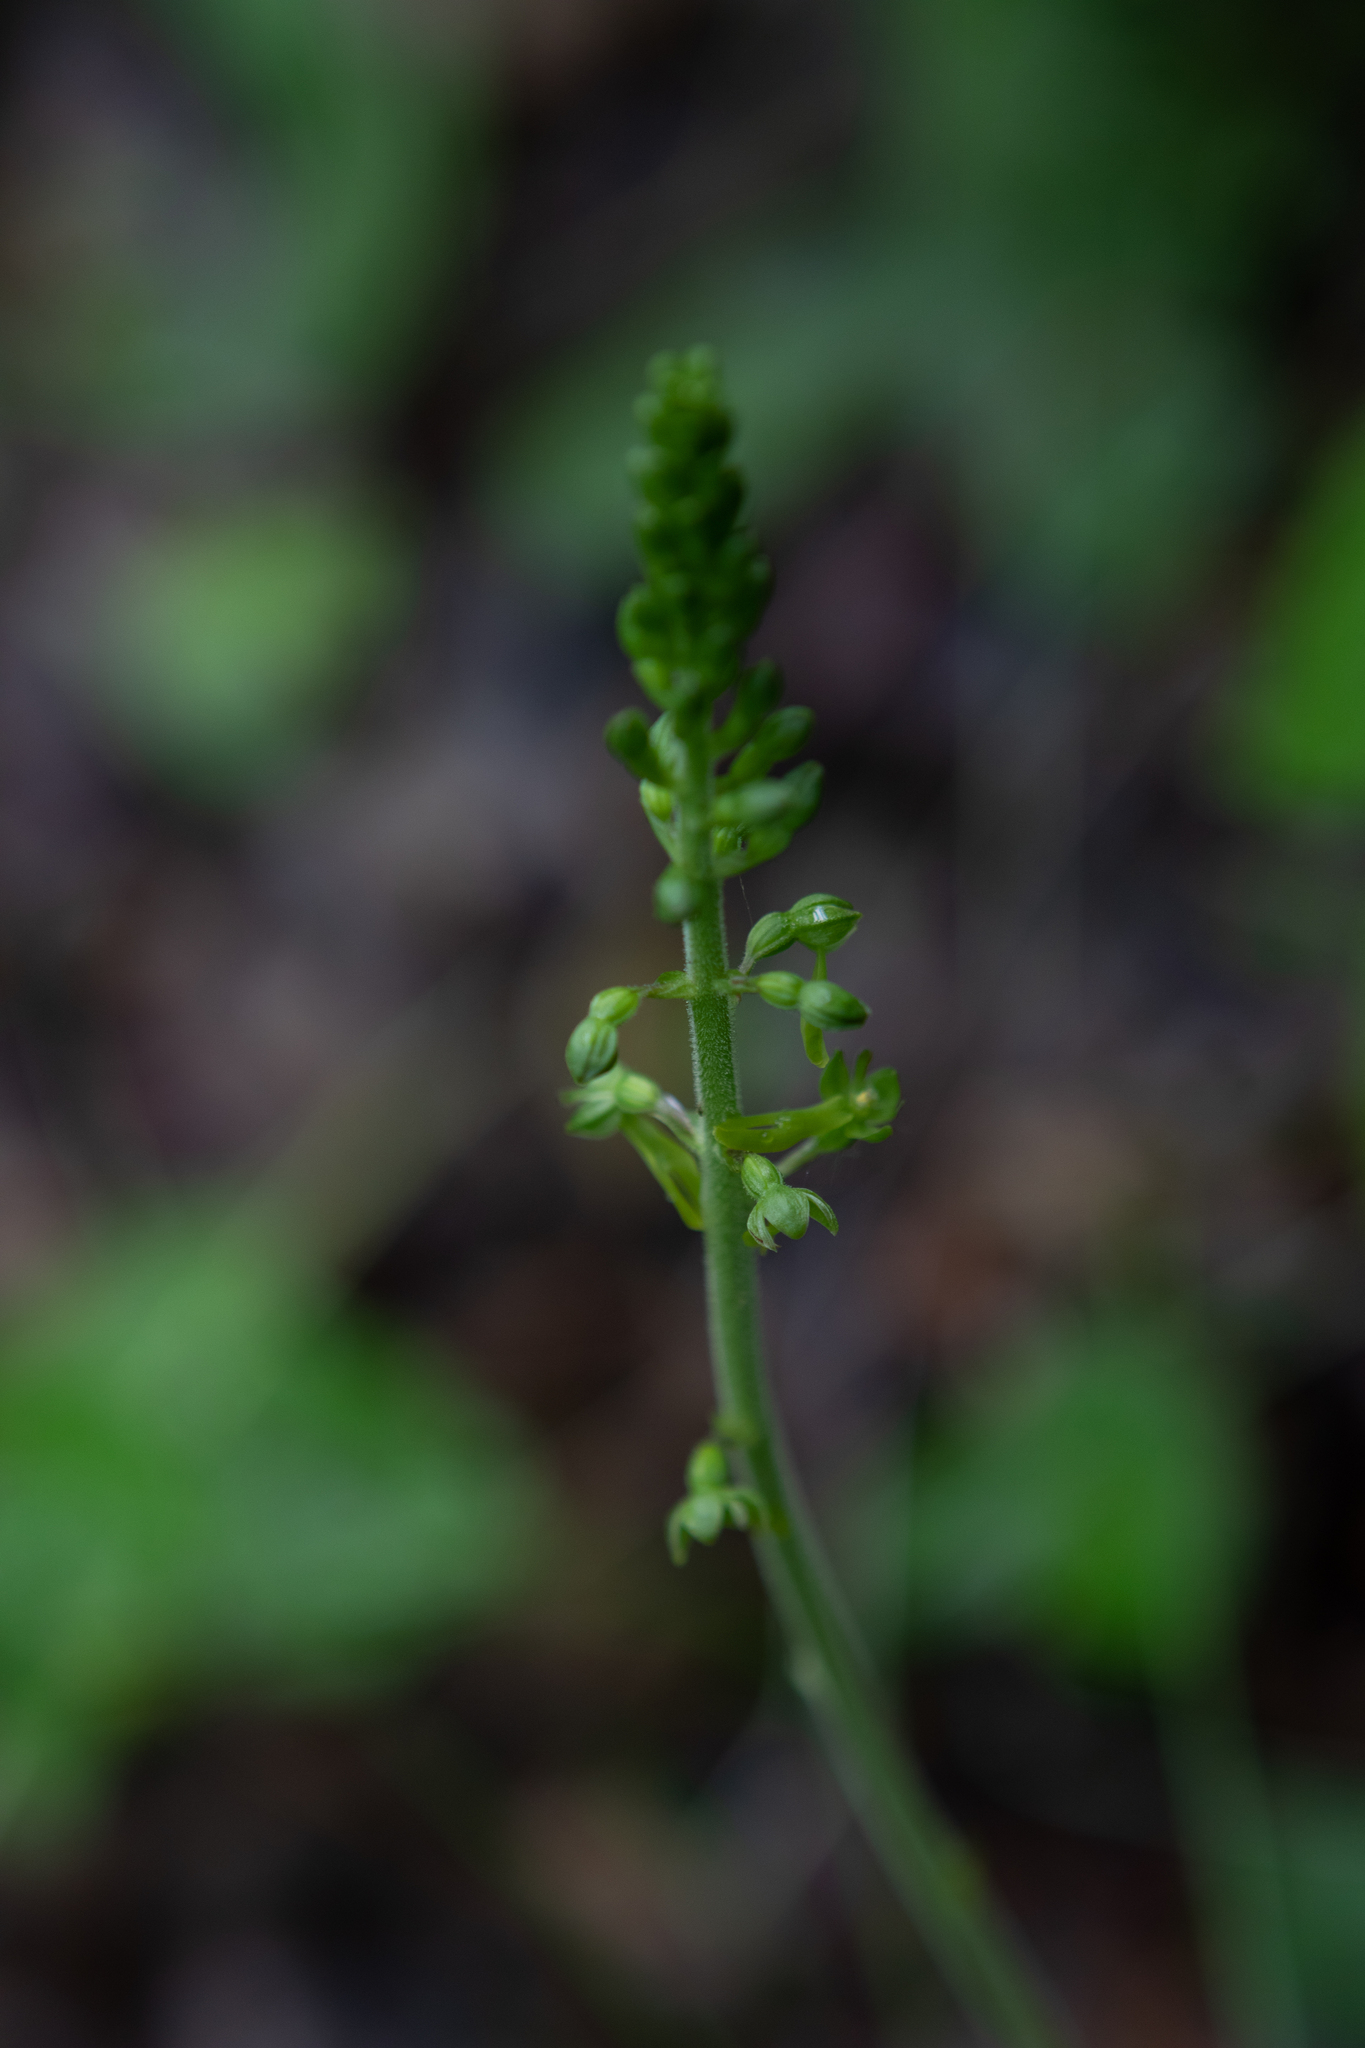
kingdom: Plantae
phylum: Tracheophyta
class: Liliopsida
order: Asparagales
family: Orchidaceae
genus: Neottia
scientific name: Neottia ovata
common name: Common twayblade
